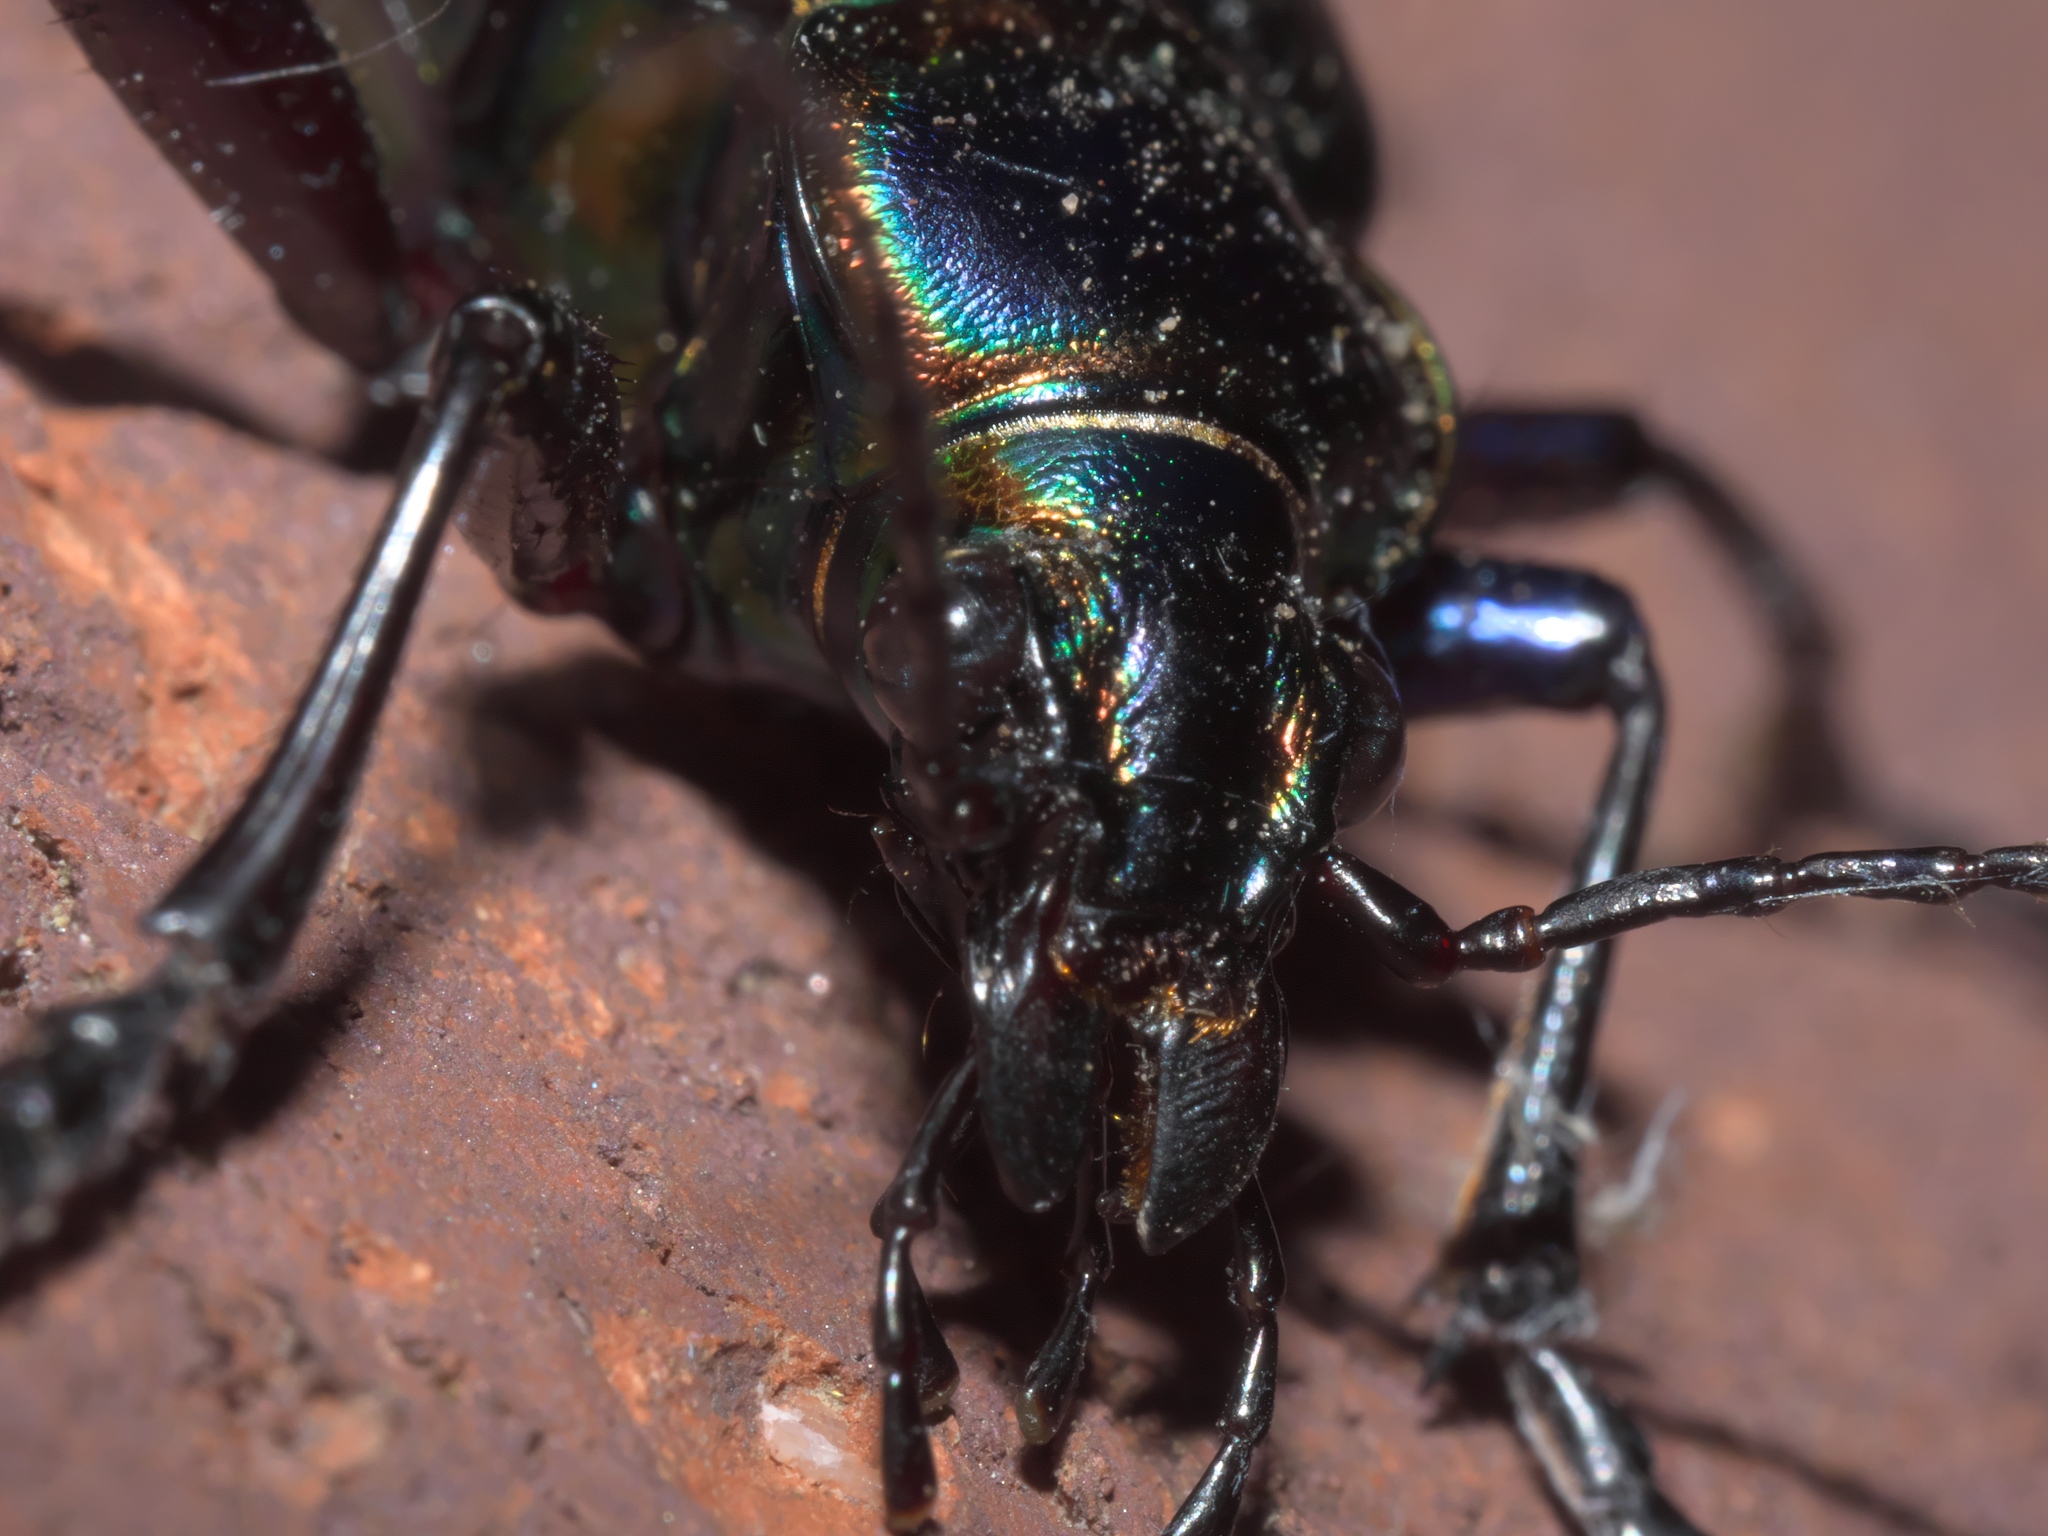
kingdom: Animalia
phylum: Arthropoda
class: Insecta
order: Coleoptera
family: Carabidae
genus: Calosoma
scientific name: Calosoma scrutator
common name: Fiery searcher beetle
